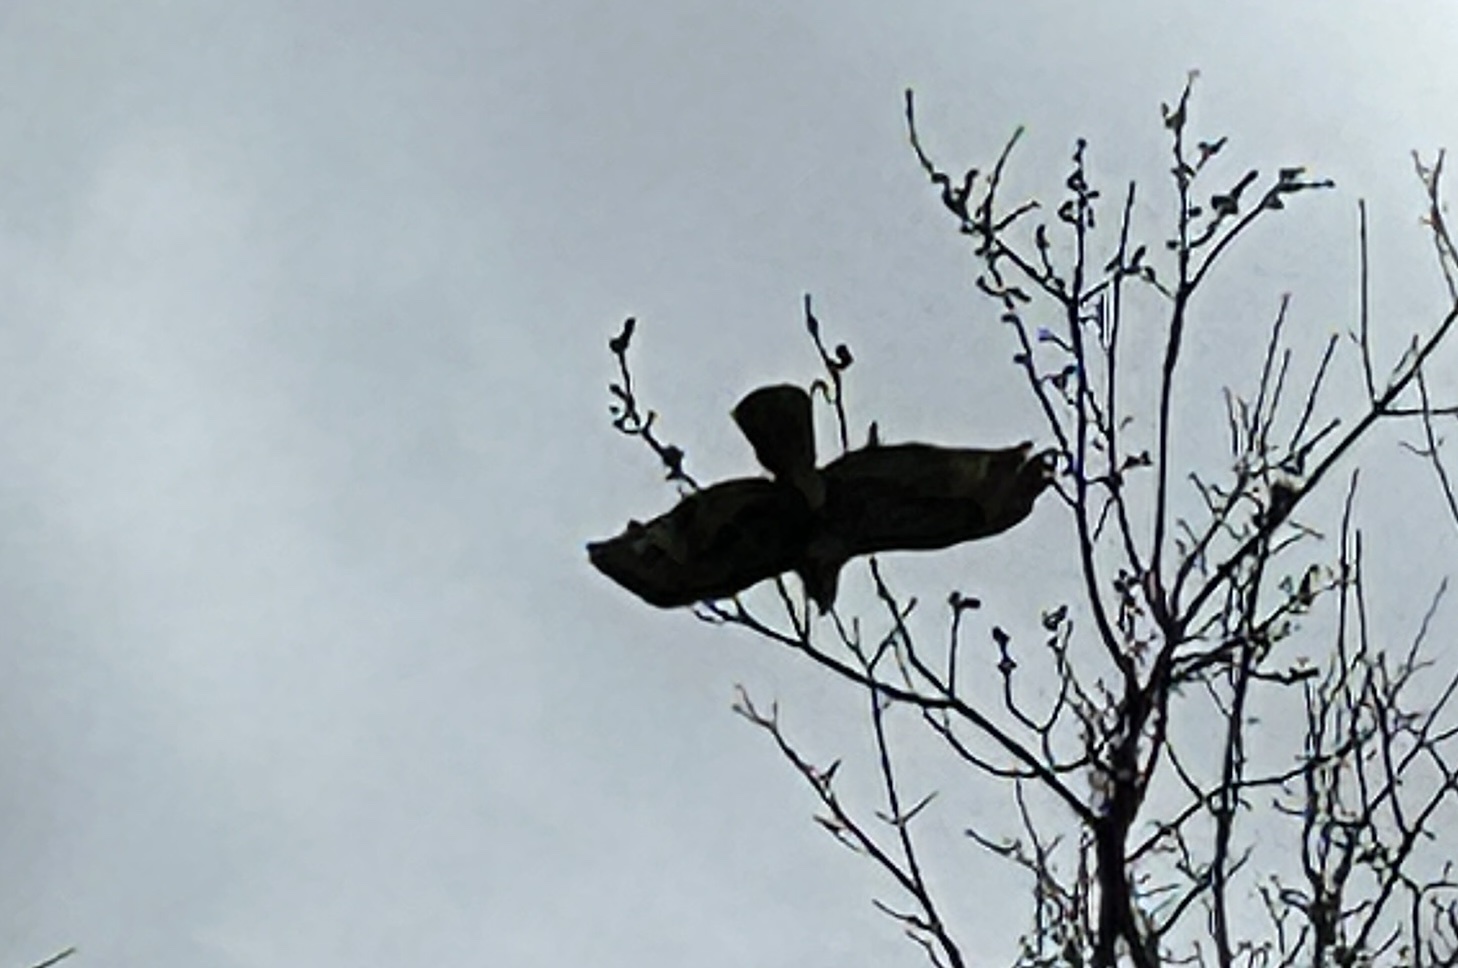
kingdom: Animalia
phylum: Chordata
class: Aves
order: Accipitriformes
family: Accipitridae
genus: Buteo
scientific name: Buteo jamaicensis
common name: Red-tailed hawk
